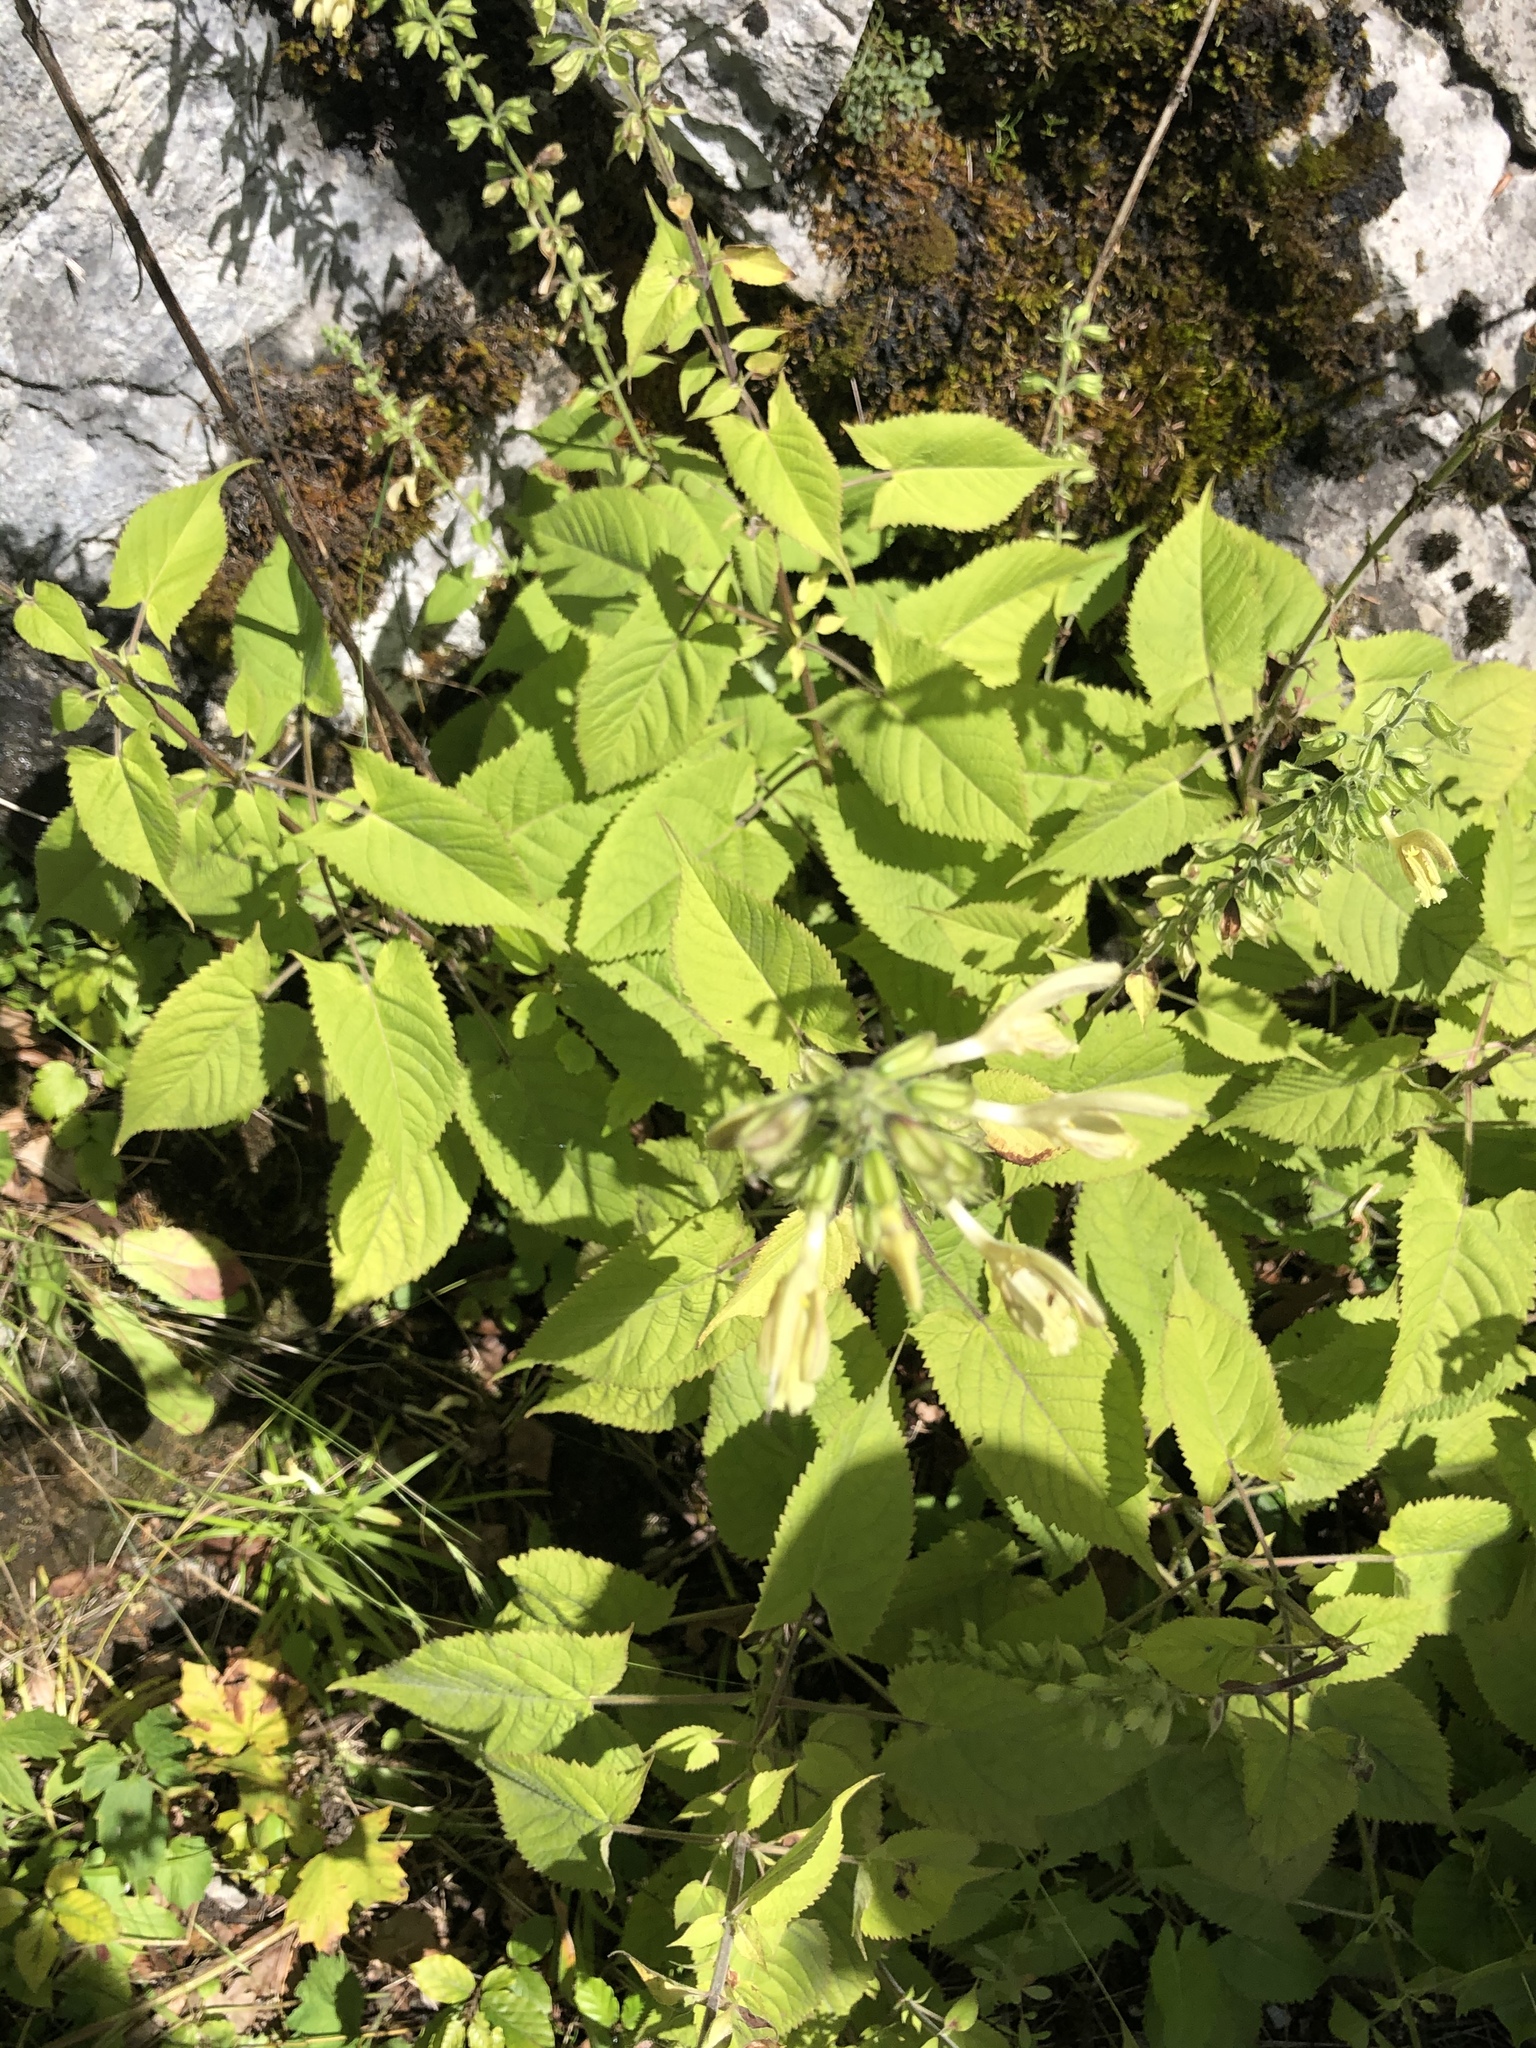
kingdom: Plantae
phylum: Tracheophyta
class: Magnoliopsida
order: Lamiales
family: Lamiaceae
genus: Salvia
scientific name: Salvia glutinosa
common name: Sticky clary
